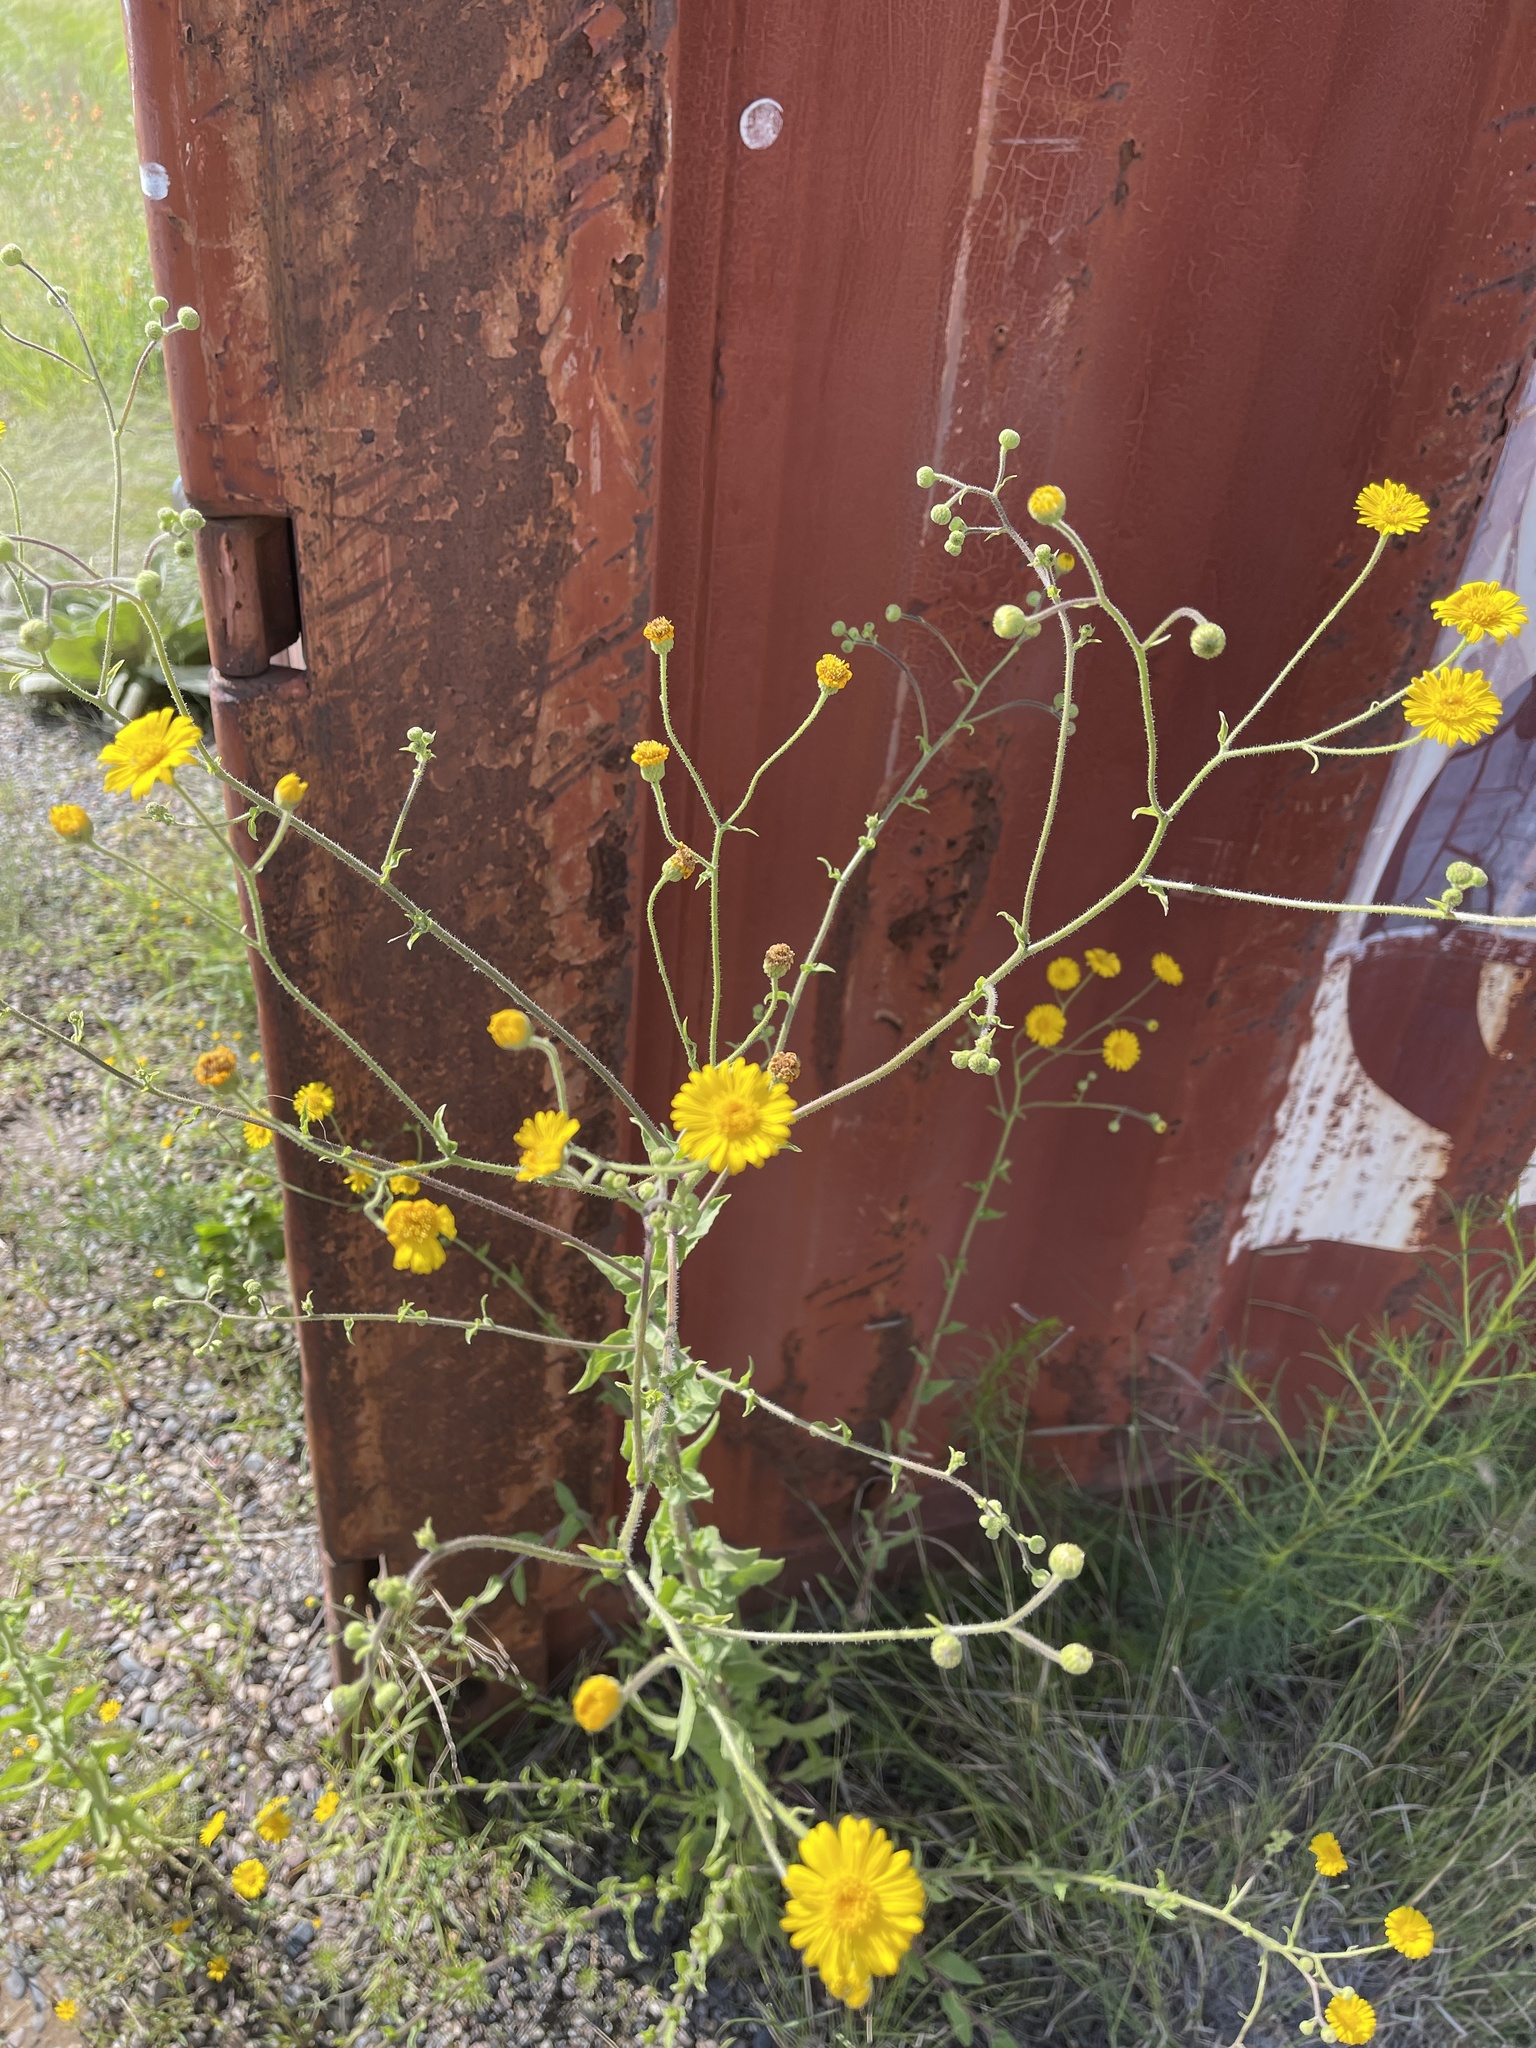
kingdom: Plantae
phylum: Tracheophyta
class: Magnoliopsida
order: Asterales
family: Asteraceae
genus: Heterotheca
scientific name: Heterotheca subaxillaris
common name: Camphorweed
